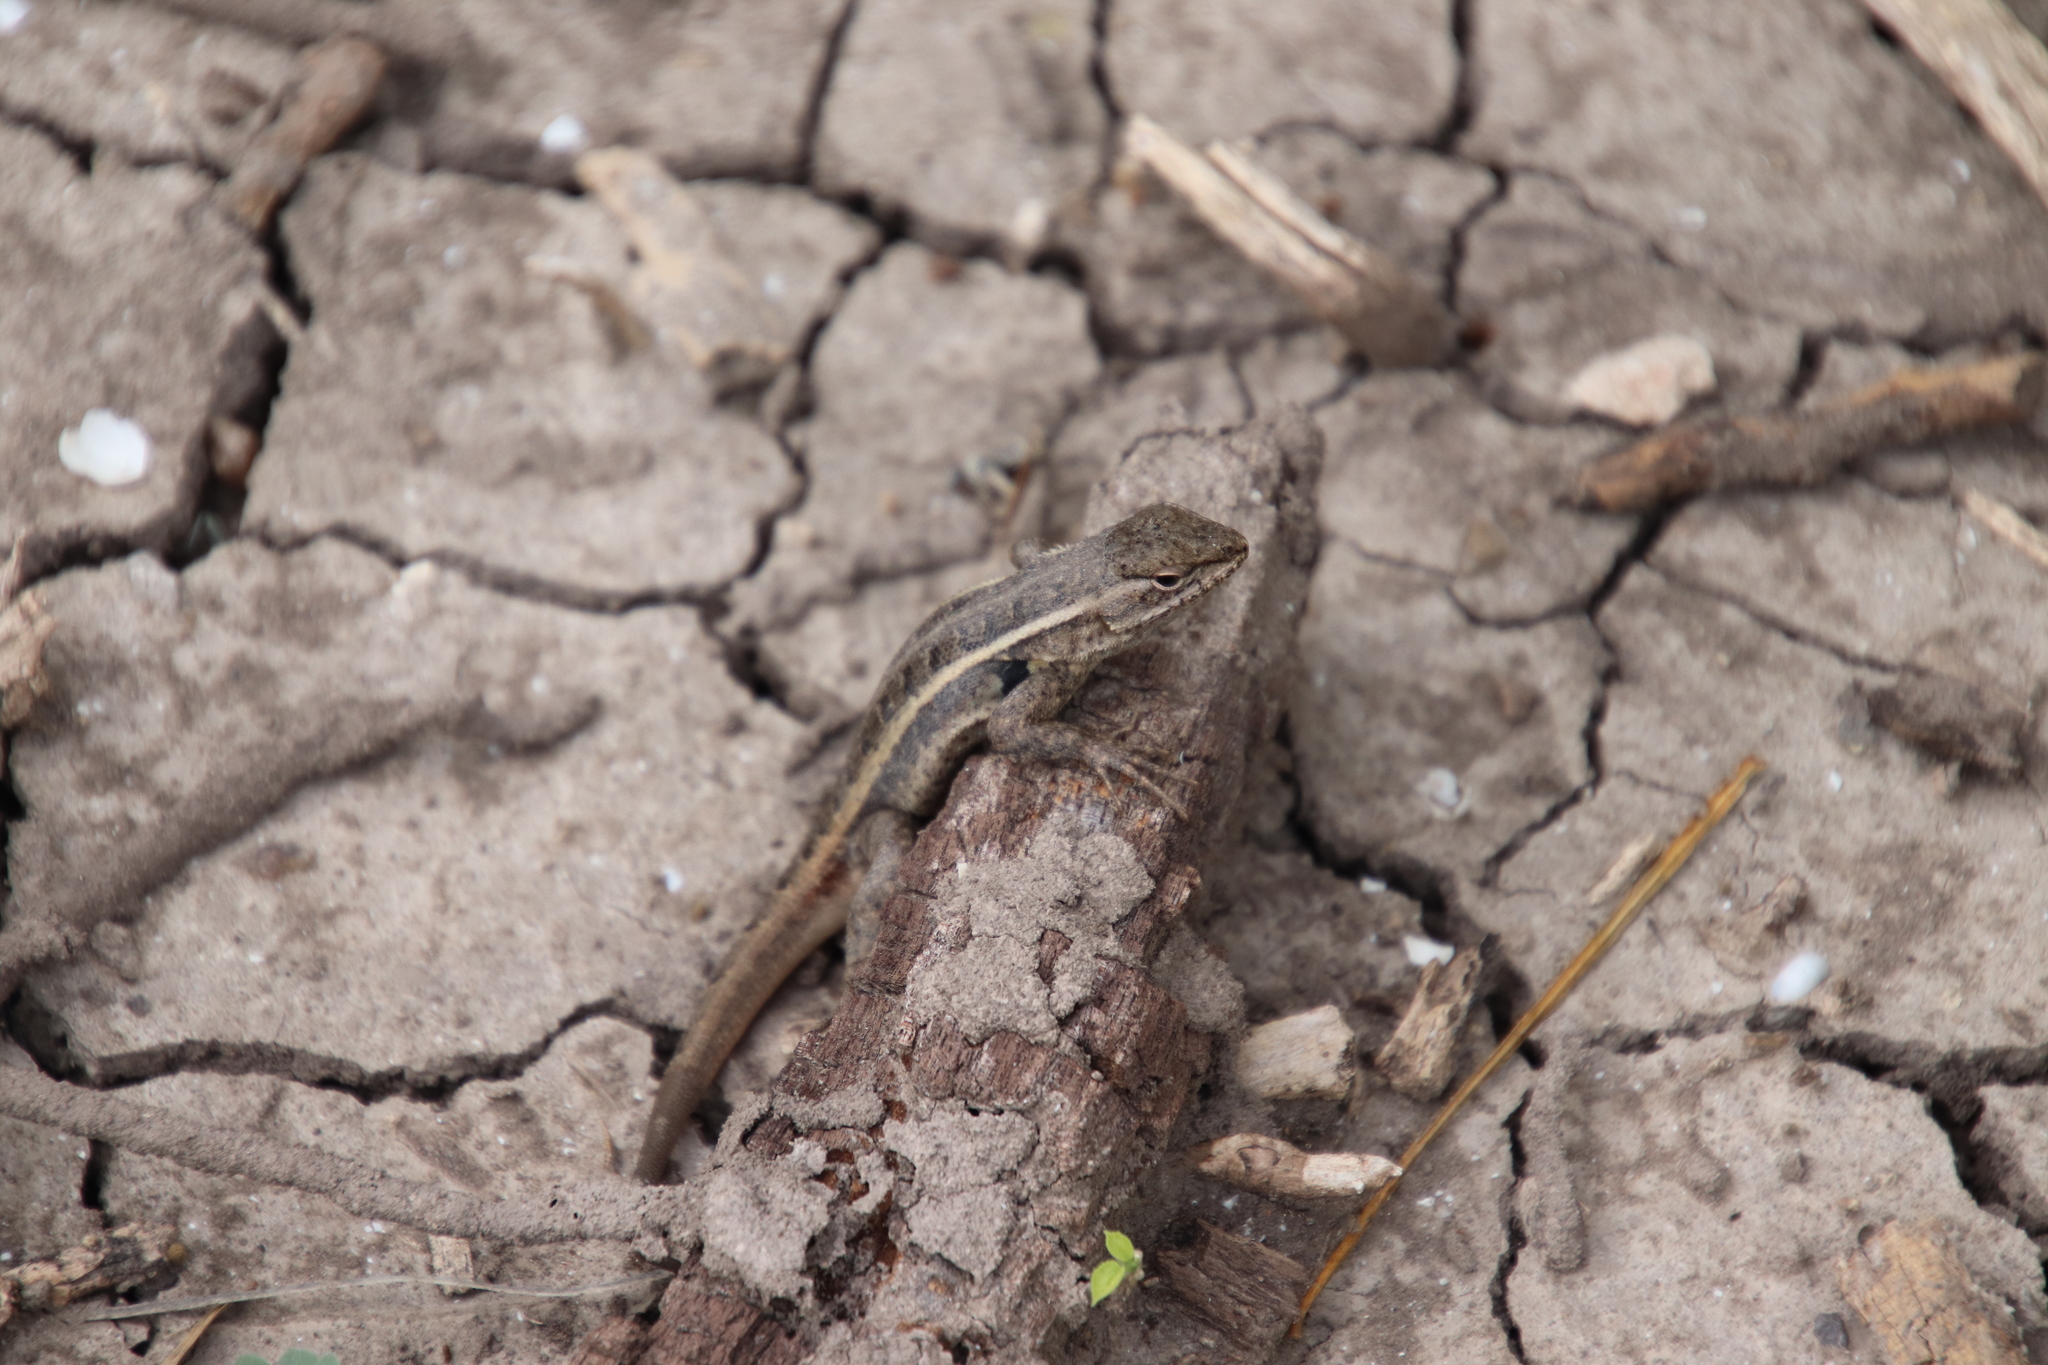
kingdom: Animalia
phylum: Chordata
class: Squamata
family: Phrynosomatidae
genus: Sceloporus
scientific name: Sceloporus variabilis
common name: Rosebelly lizard
